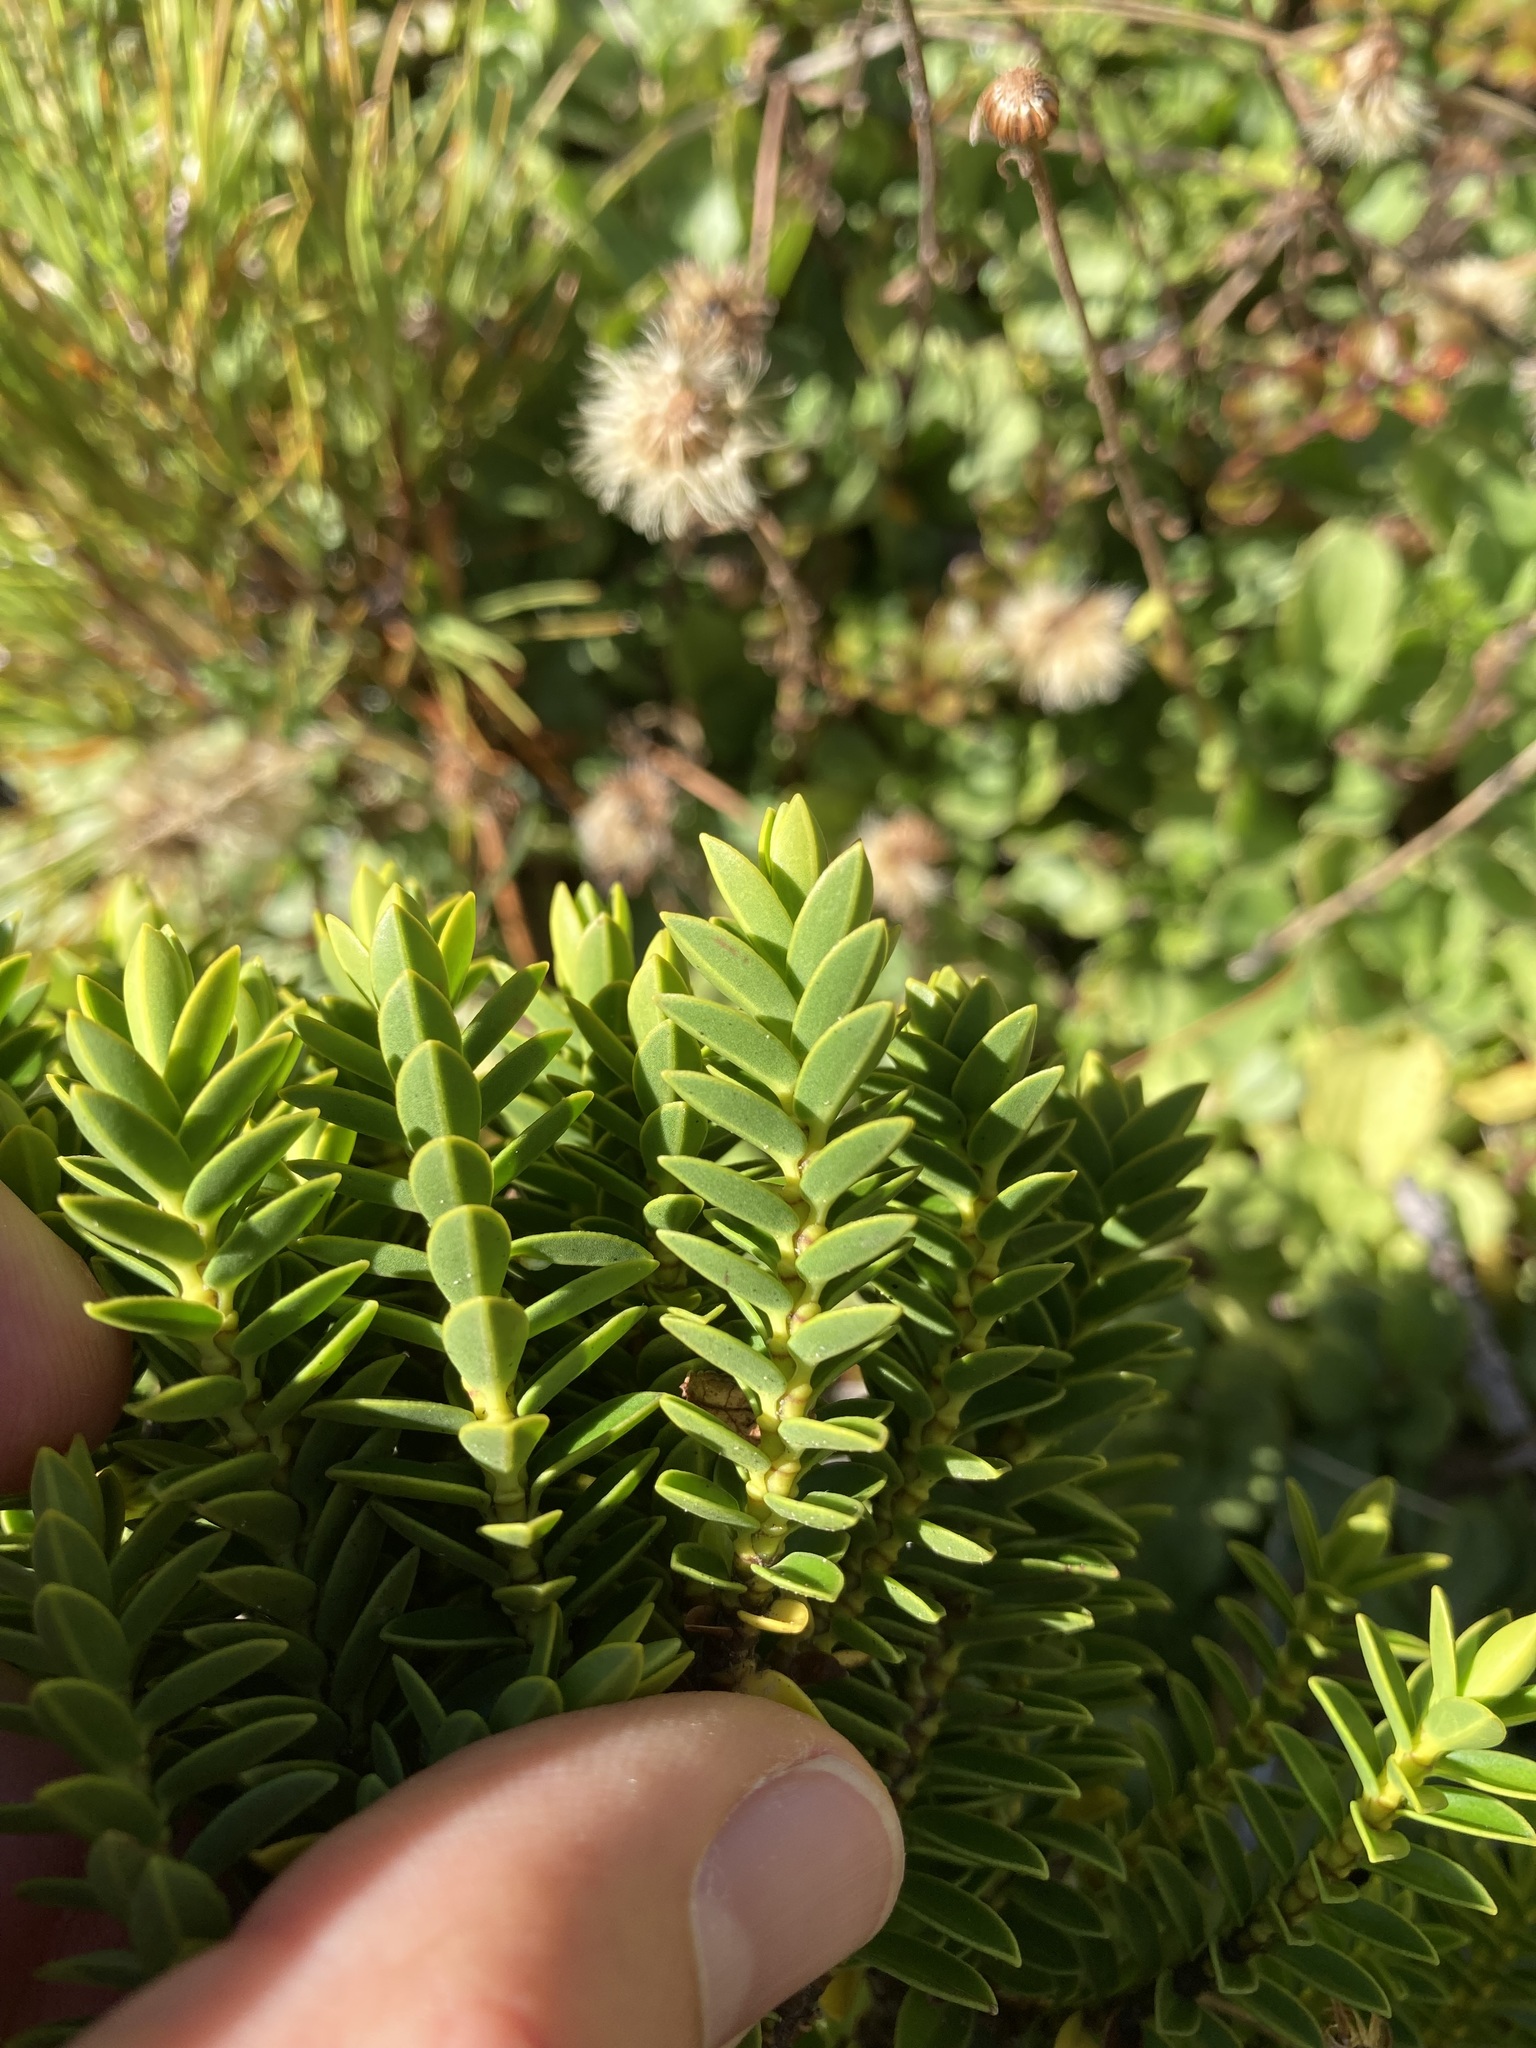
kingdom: Plantae
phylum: Tracheophyta
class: Magnoliopsida
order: Lamiales
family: Plantaginaceae
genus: Veronica
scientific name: Veronica odora
